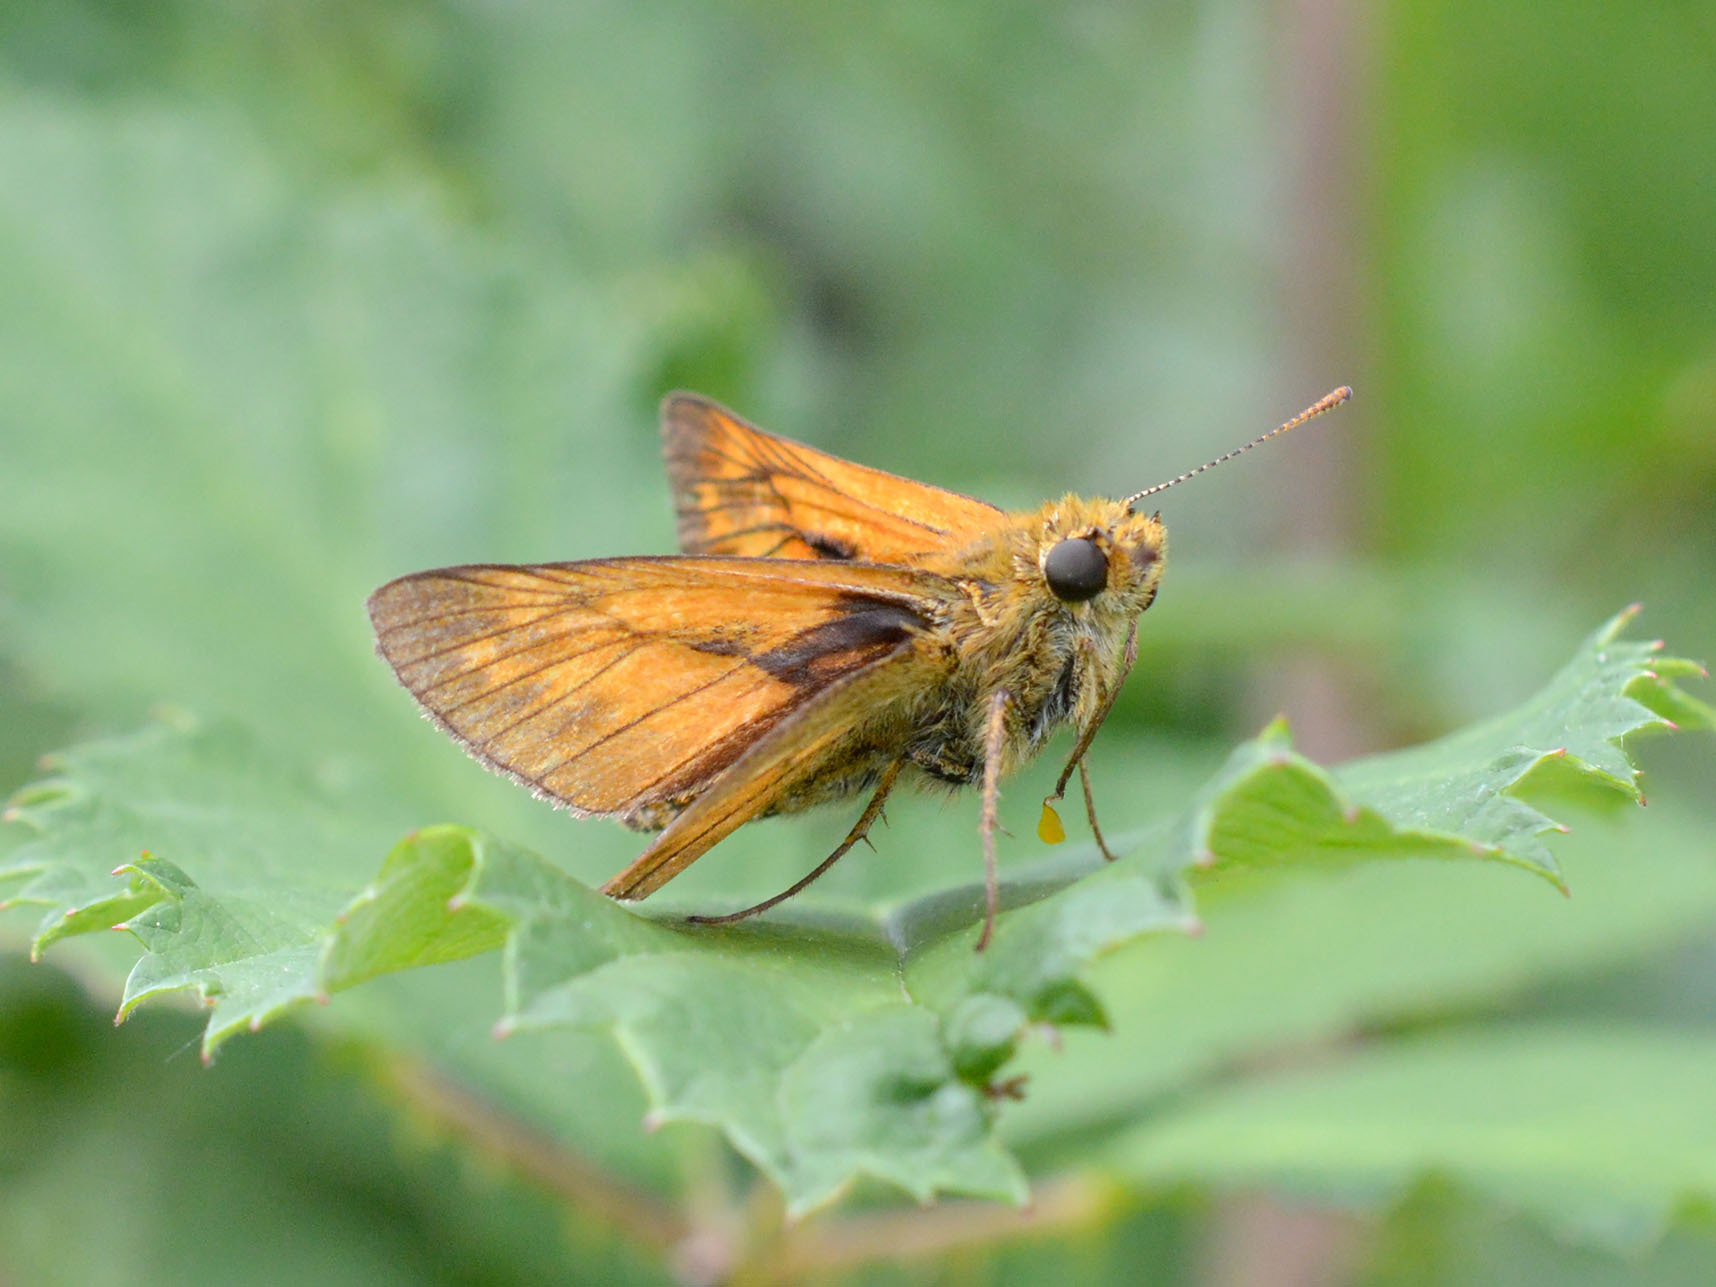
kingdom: Animalia
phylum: Arthropoda
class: Insecta
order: Lepidoptera
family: Hesperiidae
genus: Ochlodes
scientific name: Ochlodes venata
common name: Large skipper
